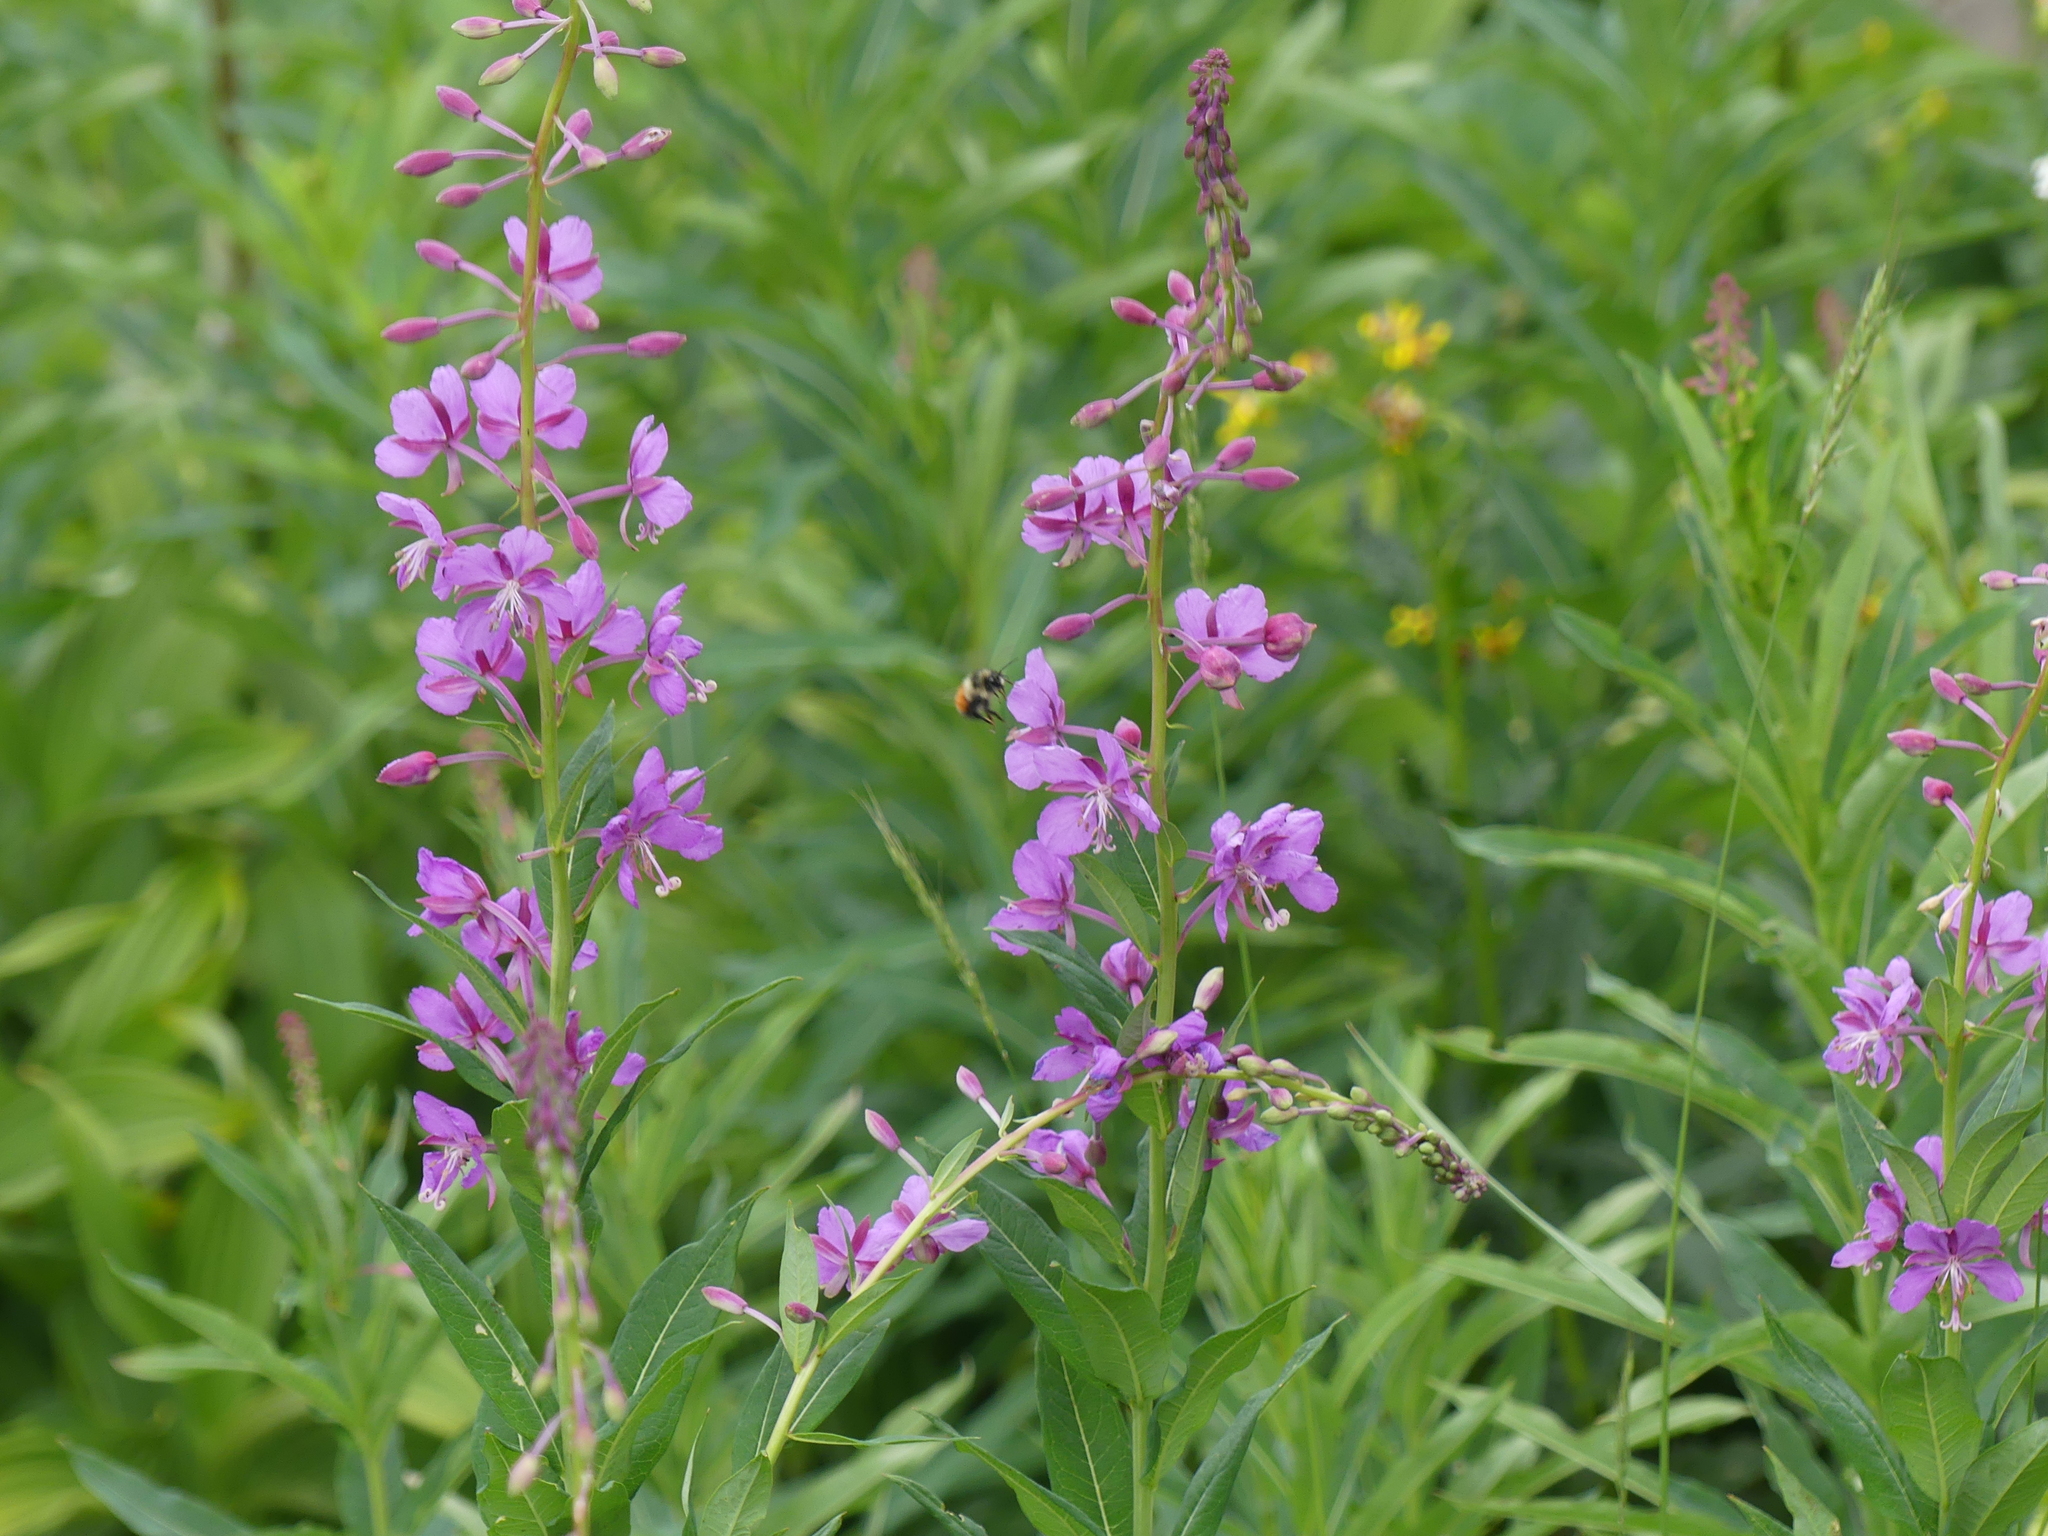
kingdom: Animalia
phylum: Arthropoda
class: Insecta
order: Hymenoptera
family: Apidae
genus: Bombus
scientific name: Bombus melanopygus
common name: Black tail bumble bee
